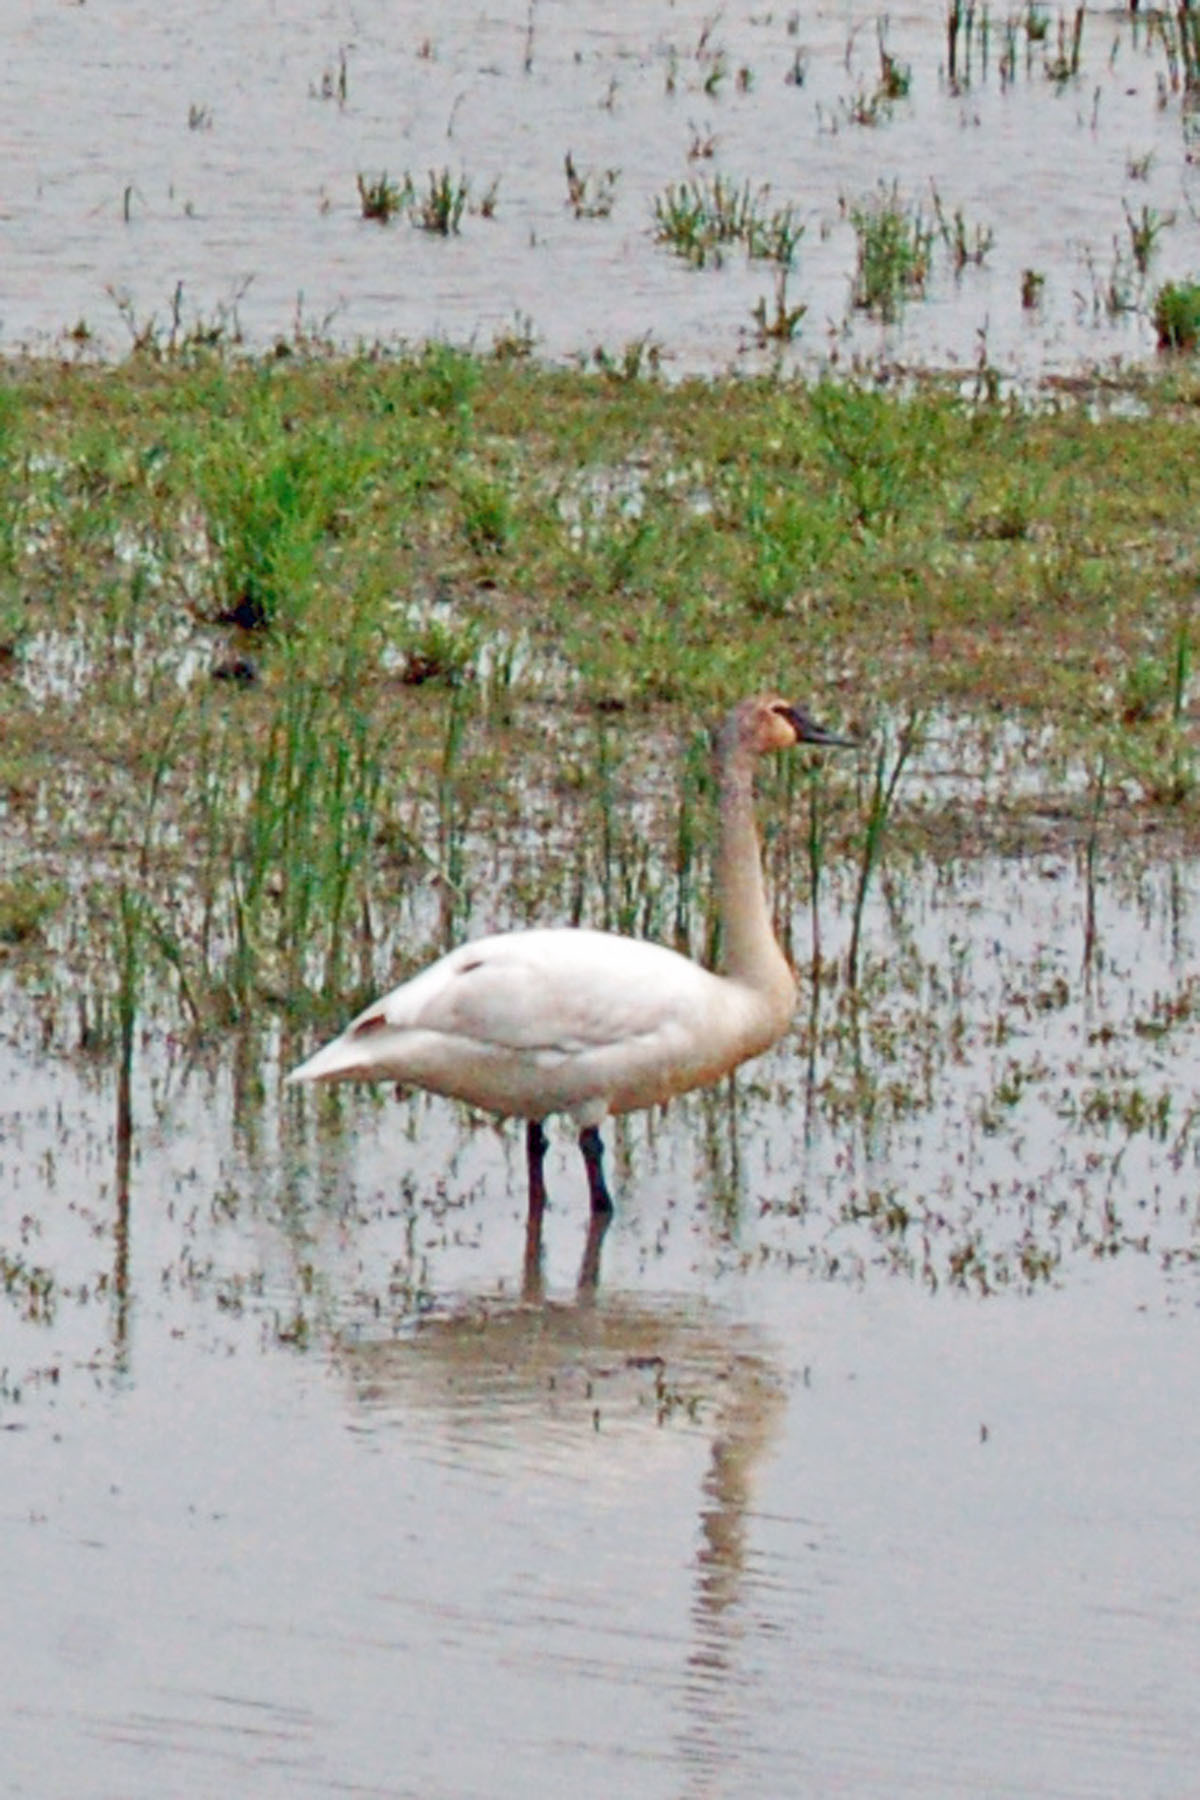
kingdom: Animalia
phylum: Chordata
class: Aves
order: Anseriformes
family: Anatidae
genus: Cygnus
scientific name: Cygnus buccinator
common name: Trumpeter swan
